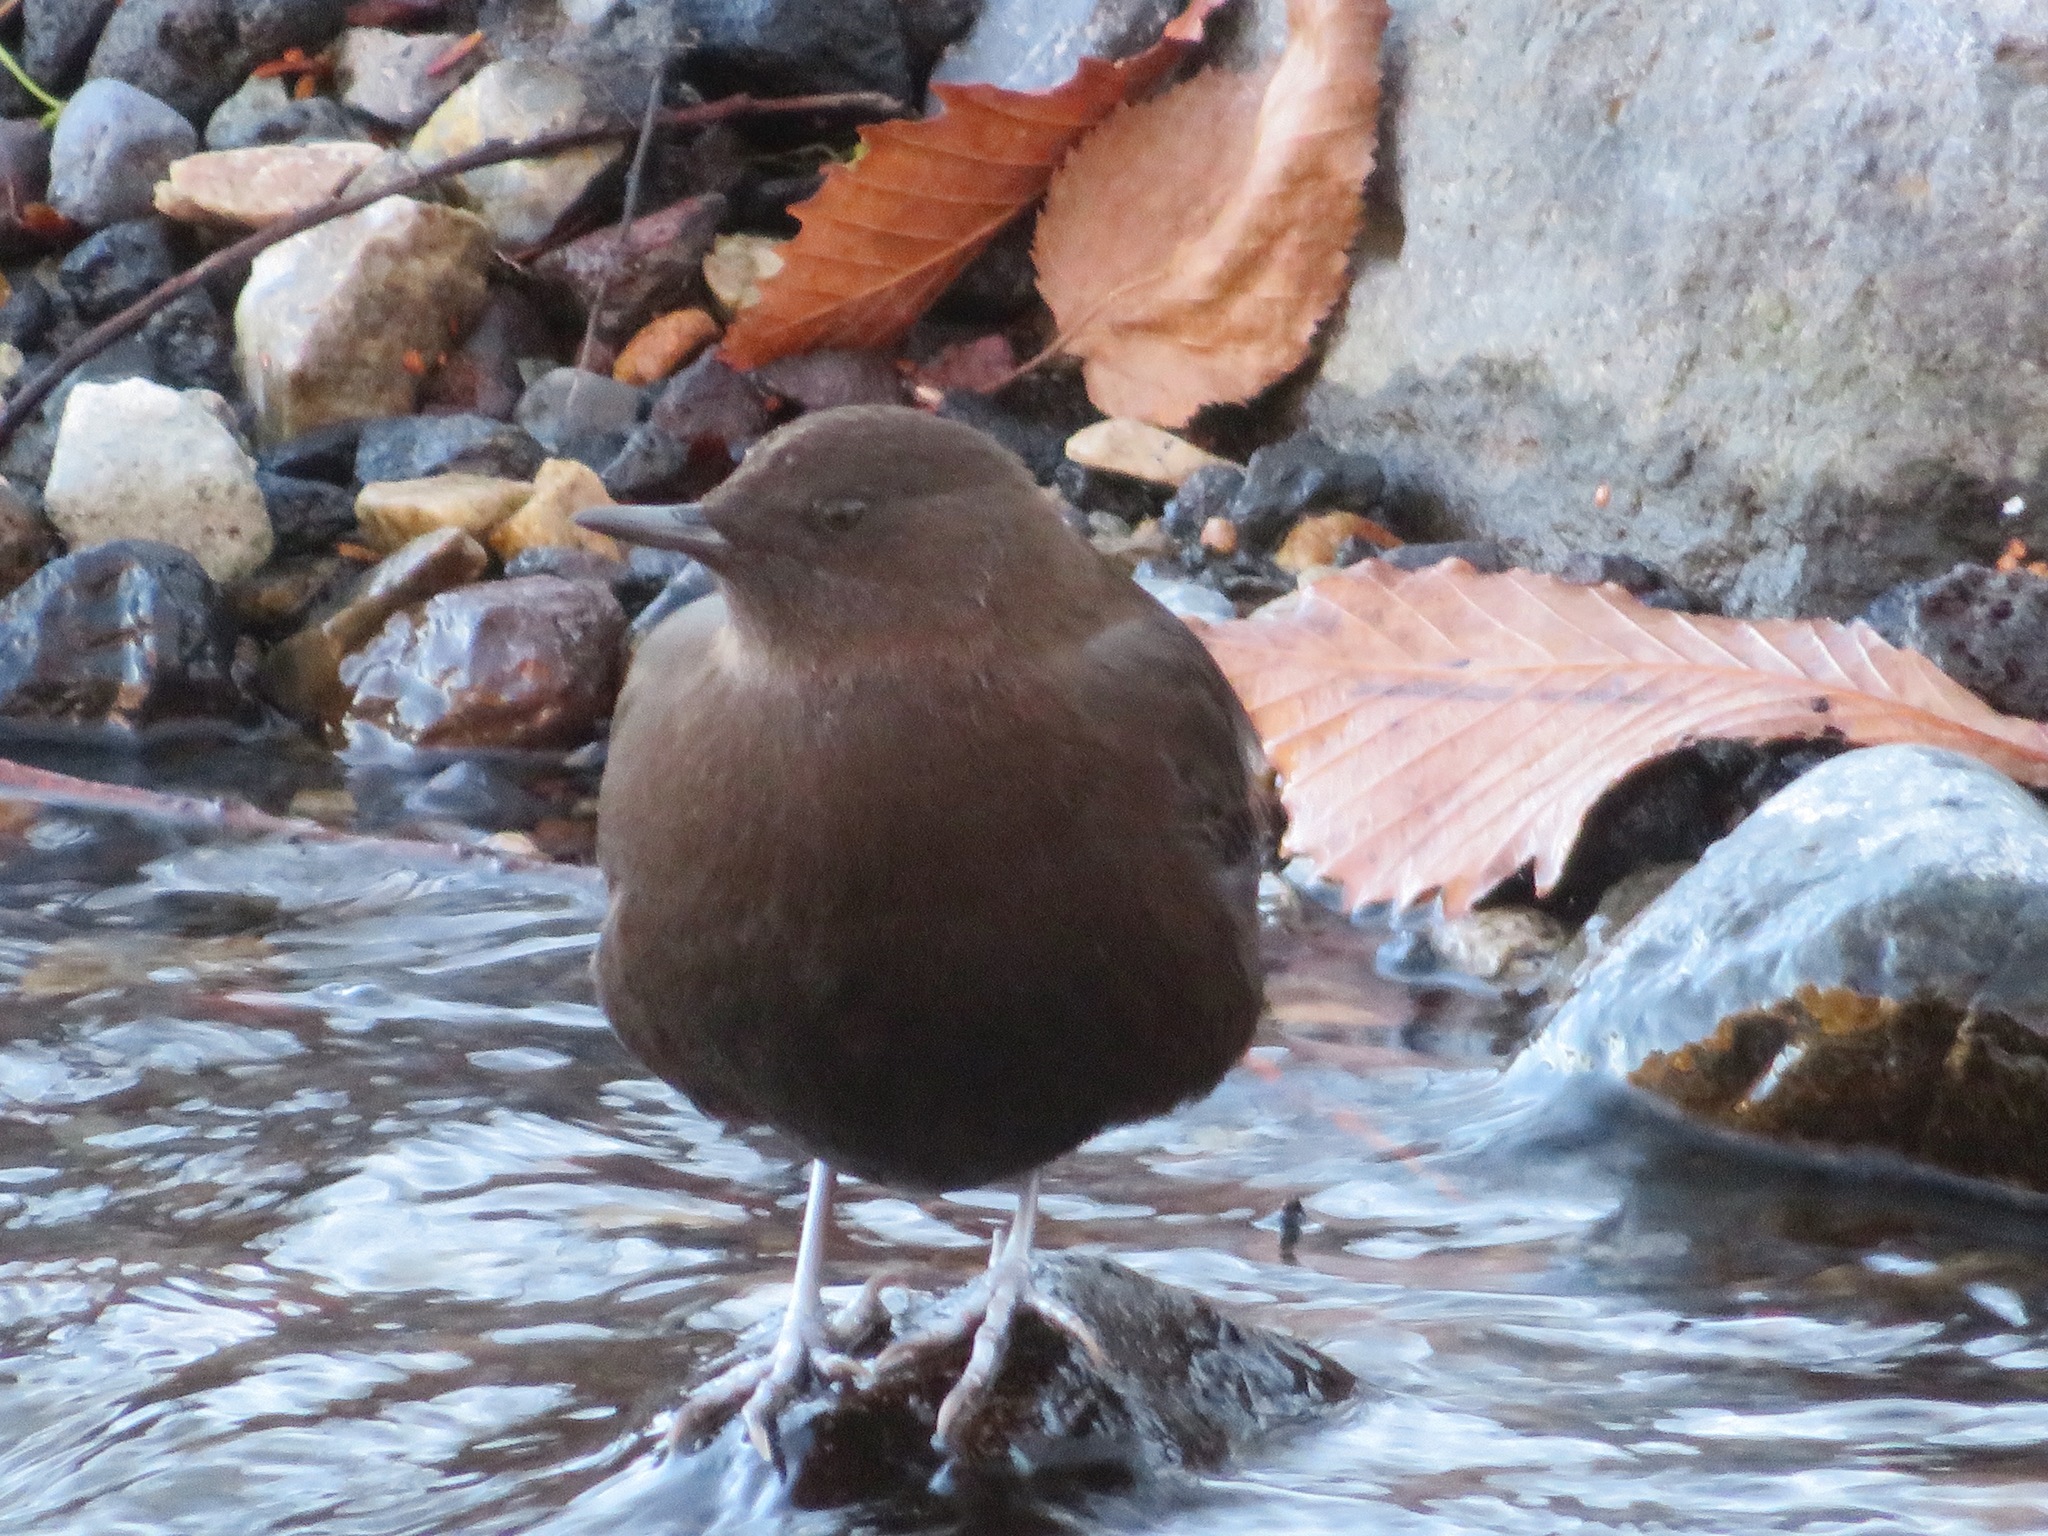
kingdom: Animalia
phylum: Chordata
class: Aves
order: Passeriformes
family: Cinclidae
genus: Cinclus
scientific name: Cinclus pallasii
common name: Brown dipper
